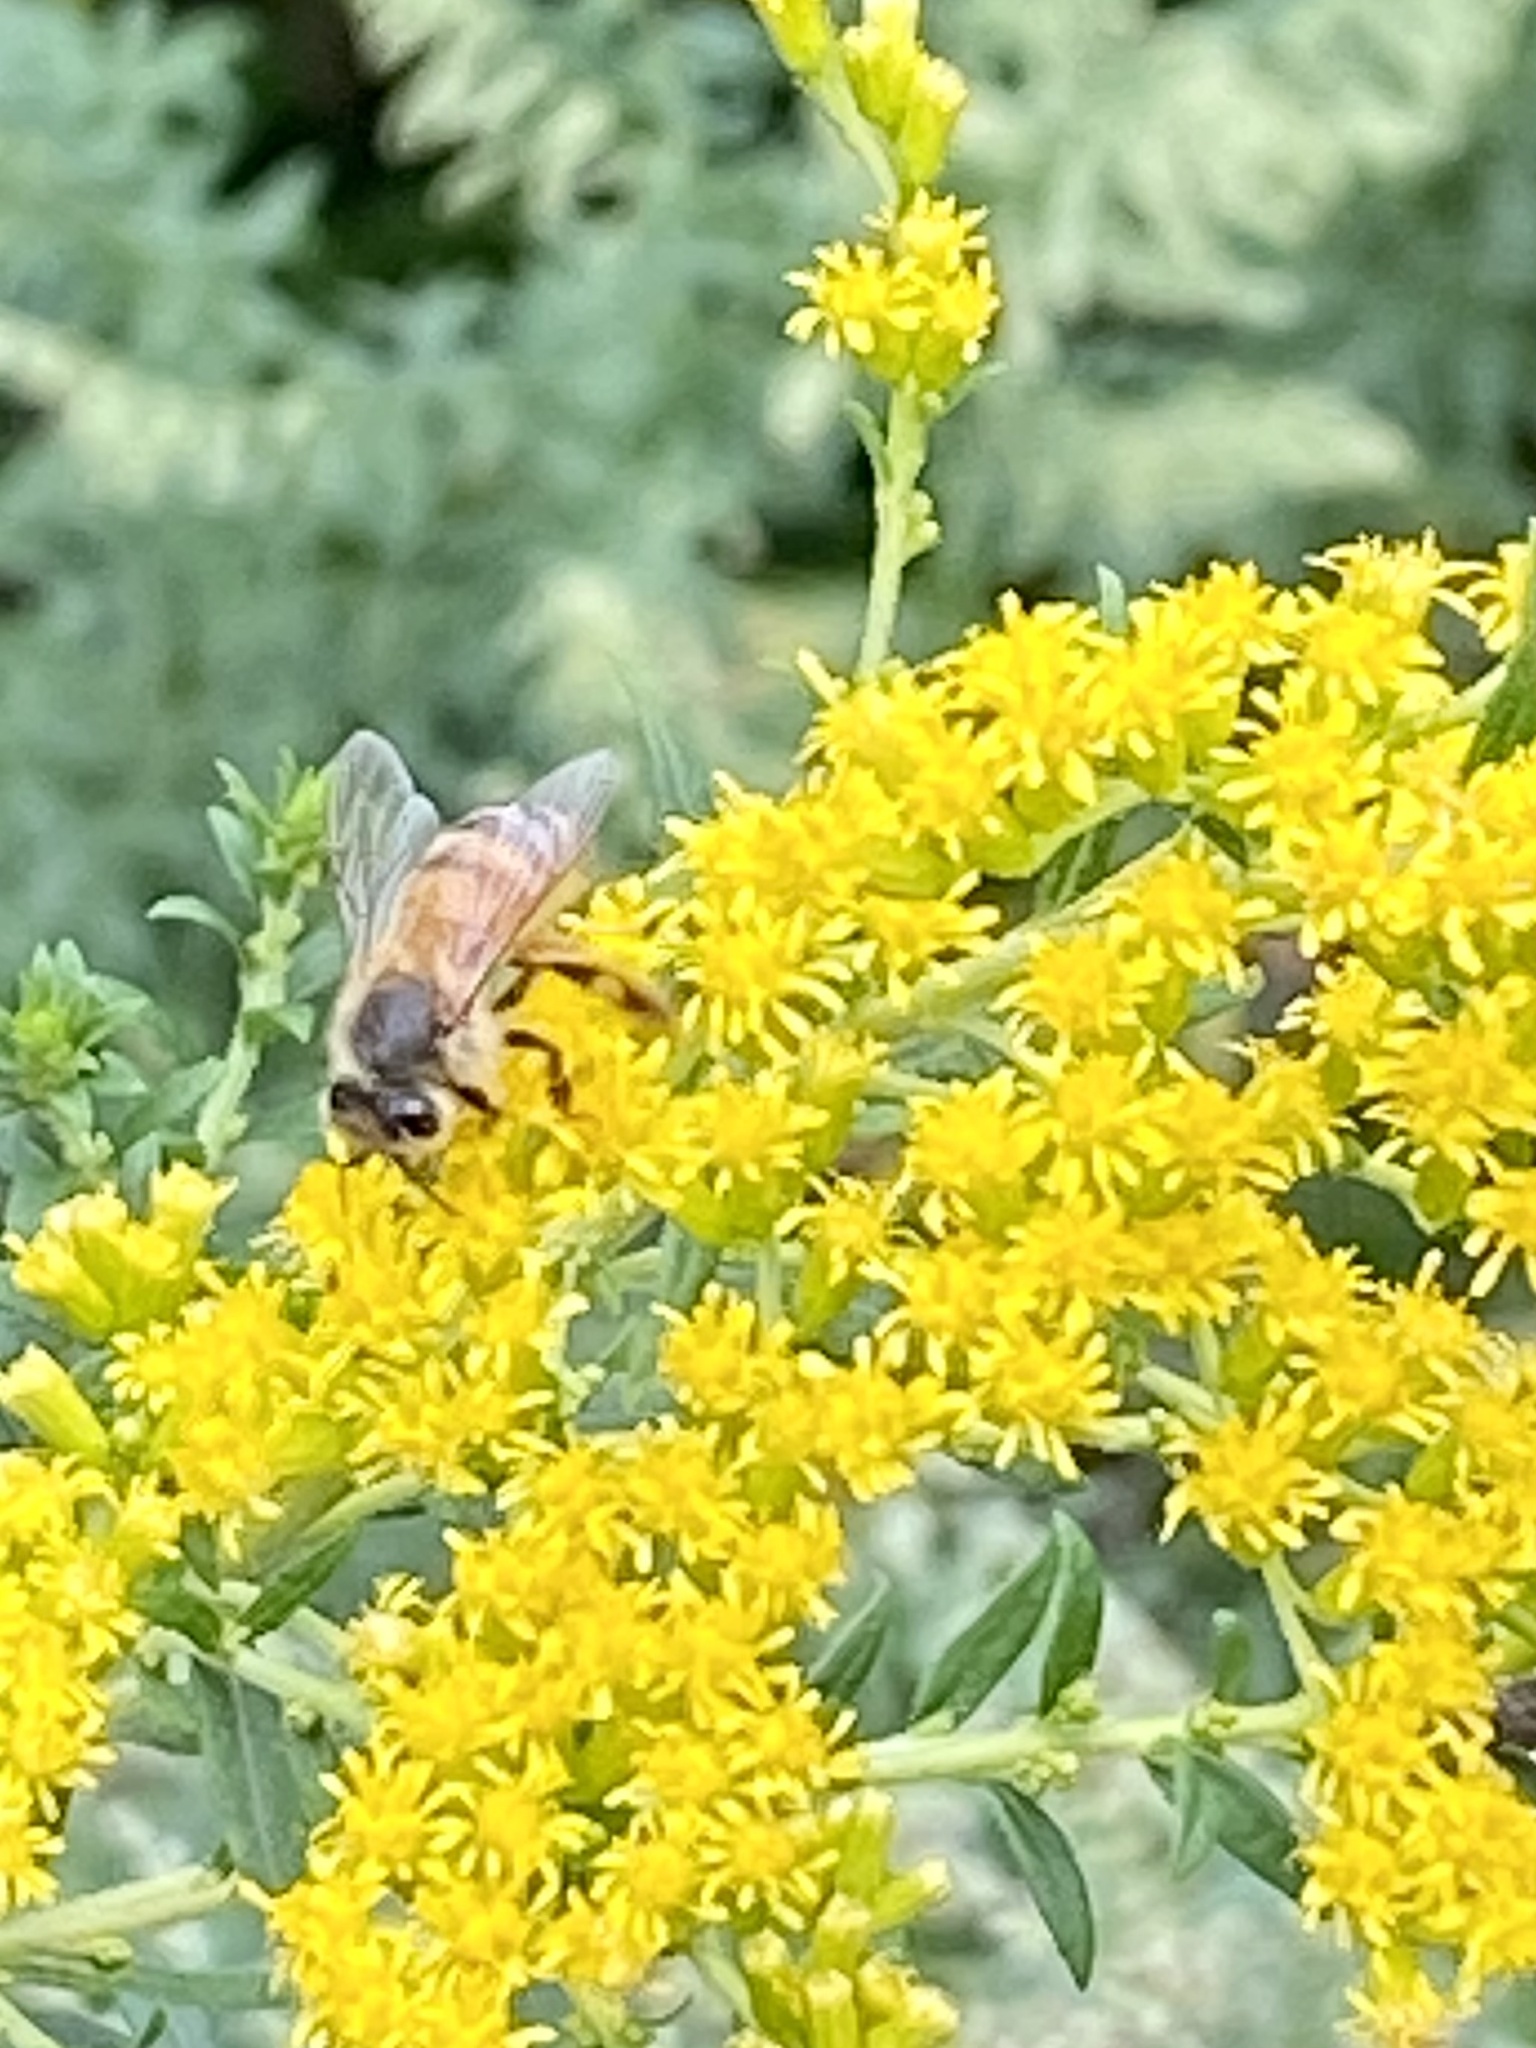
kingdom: Animalia
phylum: Arthropoda
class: Insecta
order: Hymenoptera
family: Apidae
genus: Apis
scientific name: Apis mellifera
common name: Honey bee
